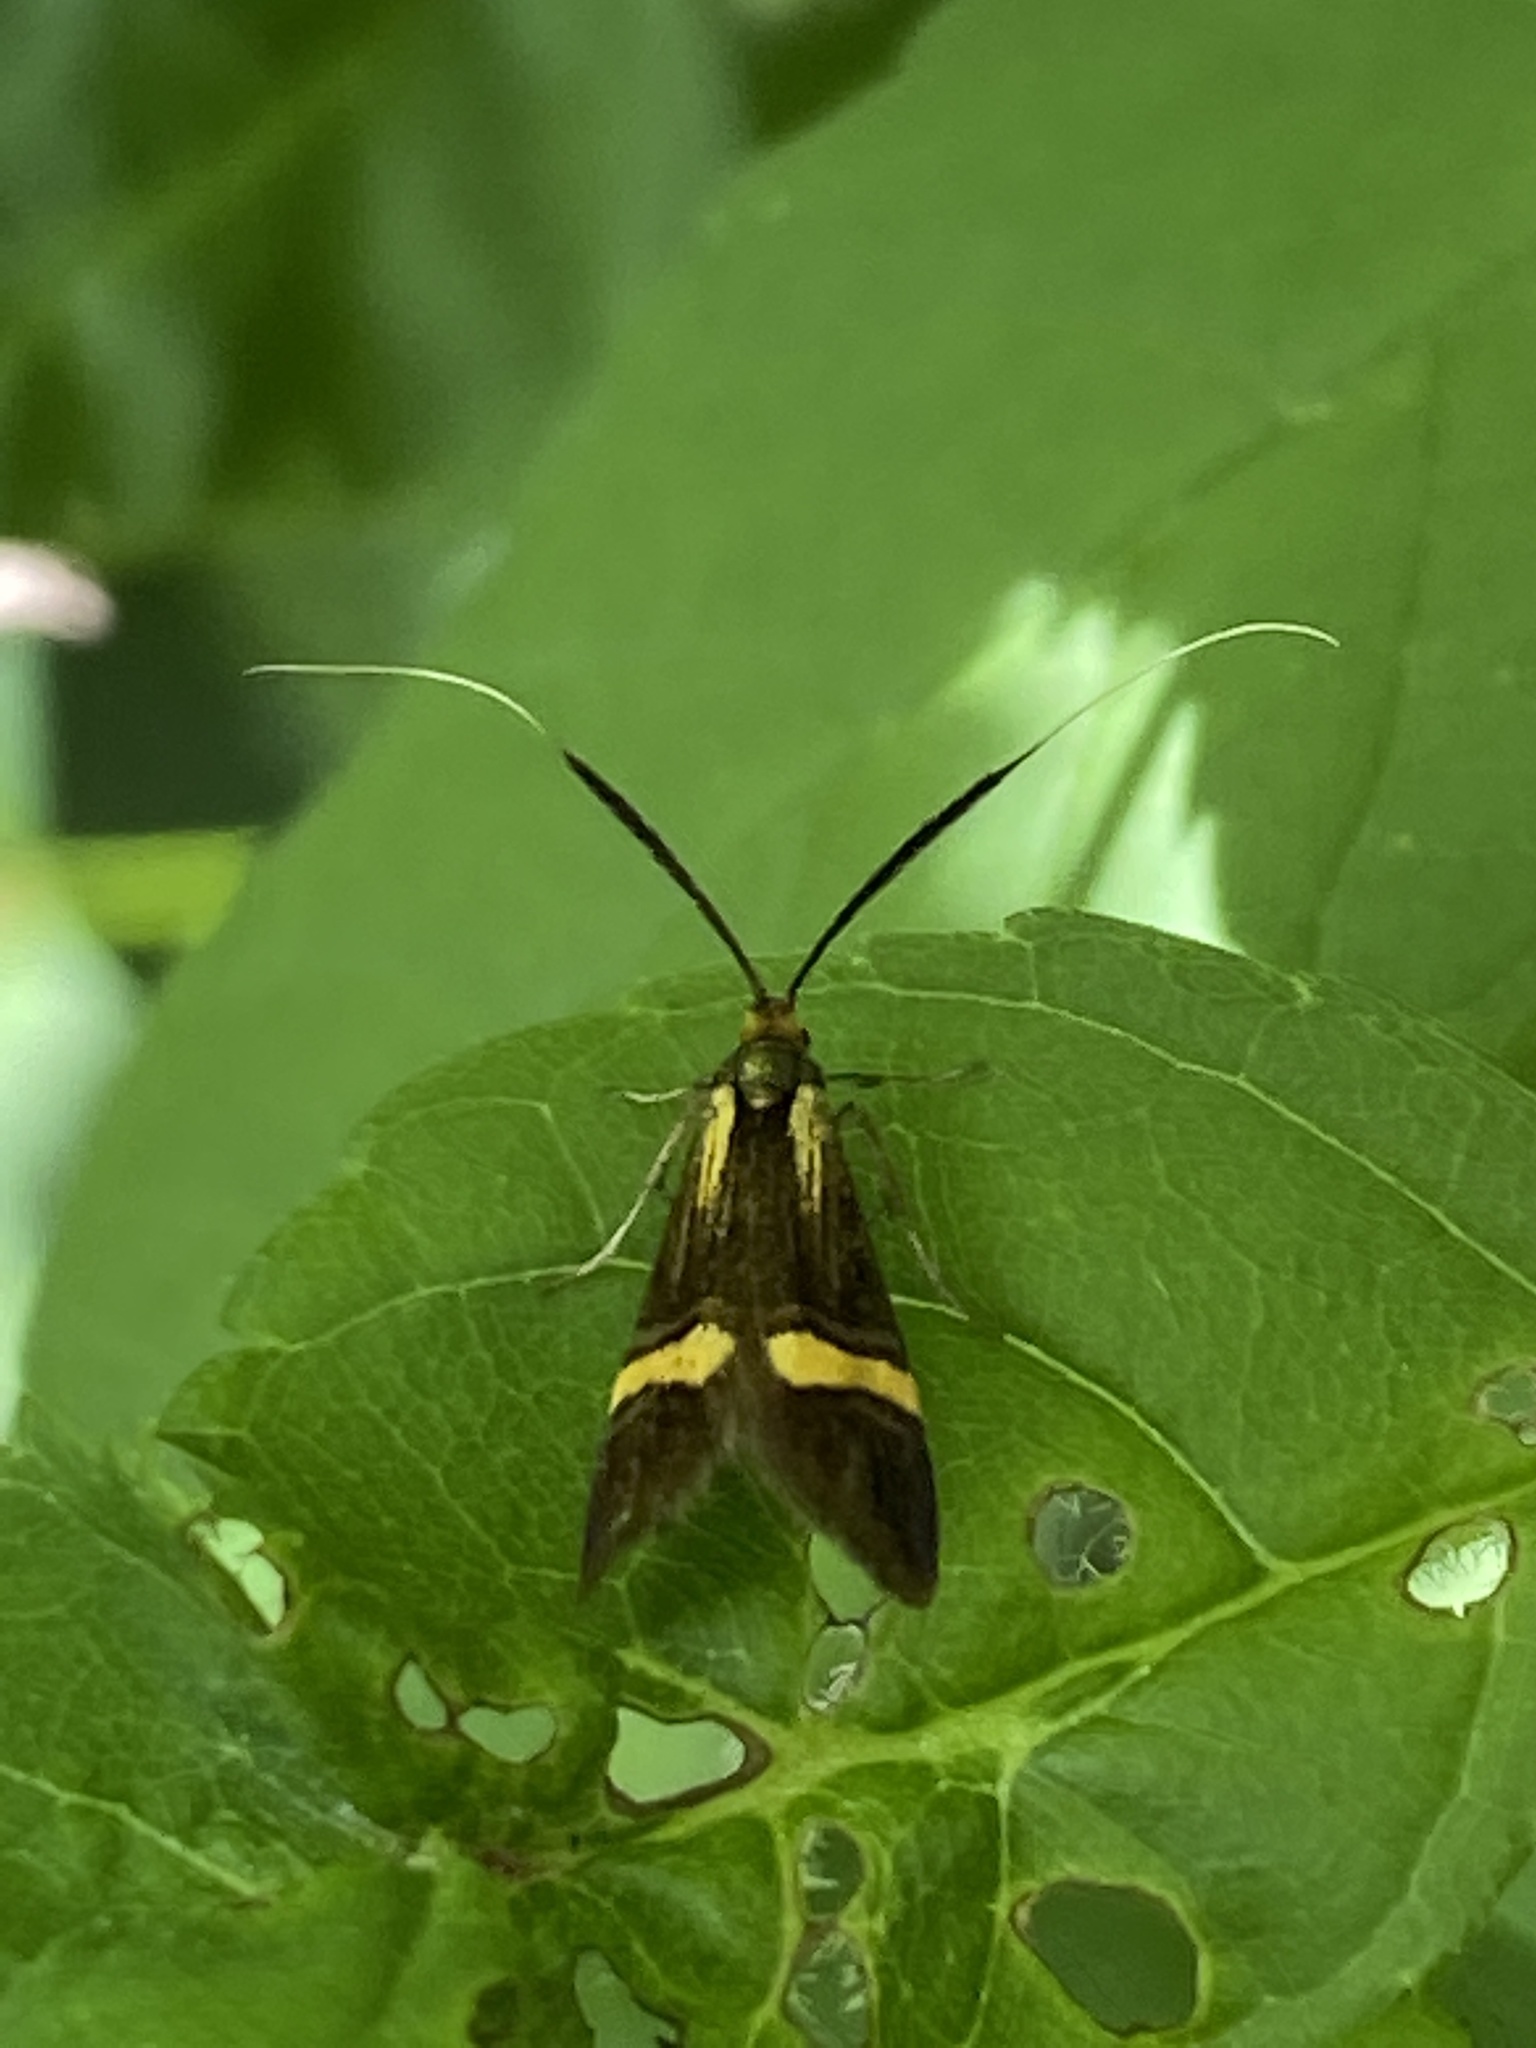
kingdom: Animalia
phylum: Arthropoda
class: Insecta
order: Lepidoptera
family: Adelidae
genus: Nemophora
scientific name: Nemophora degeerella
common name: Yellow-barred long-horn
